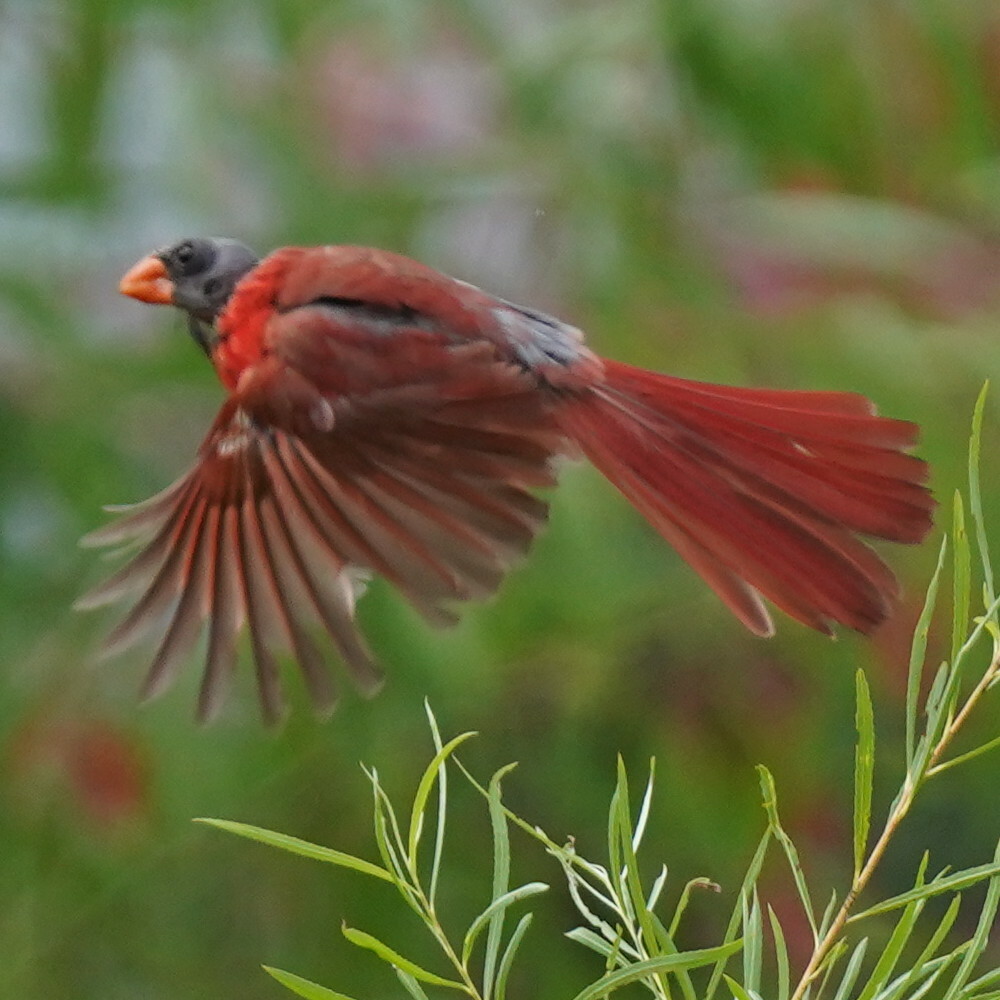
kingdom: Animalia
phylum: Chordata
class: Aves
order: Passeriformes
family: Cardinalidae
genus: Cardinalis
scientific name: Cardinalis cardinalis
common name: Northern cardinal
